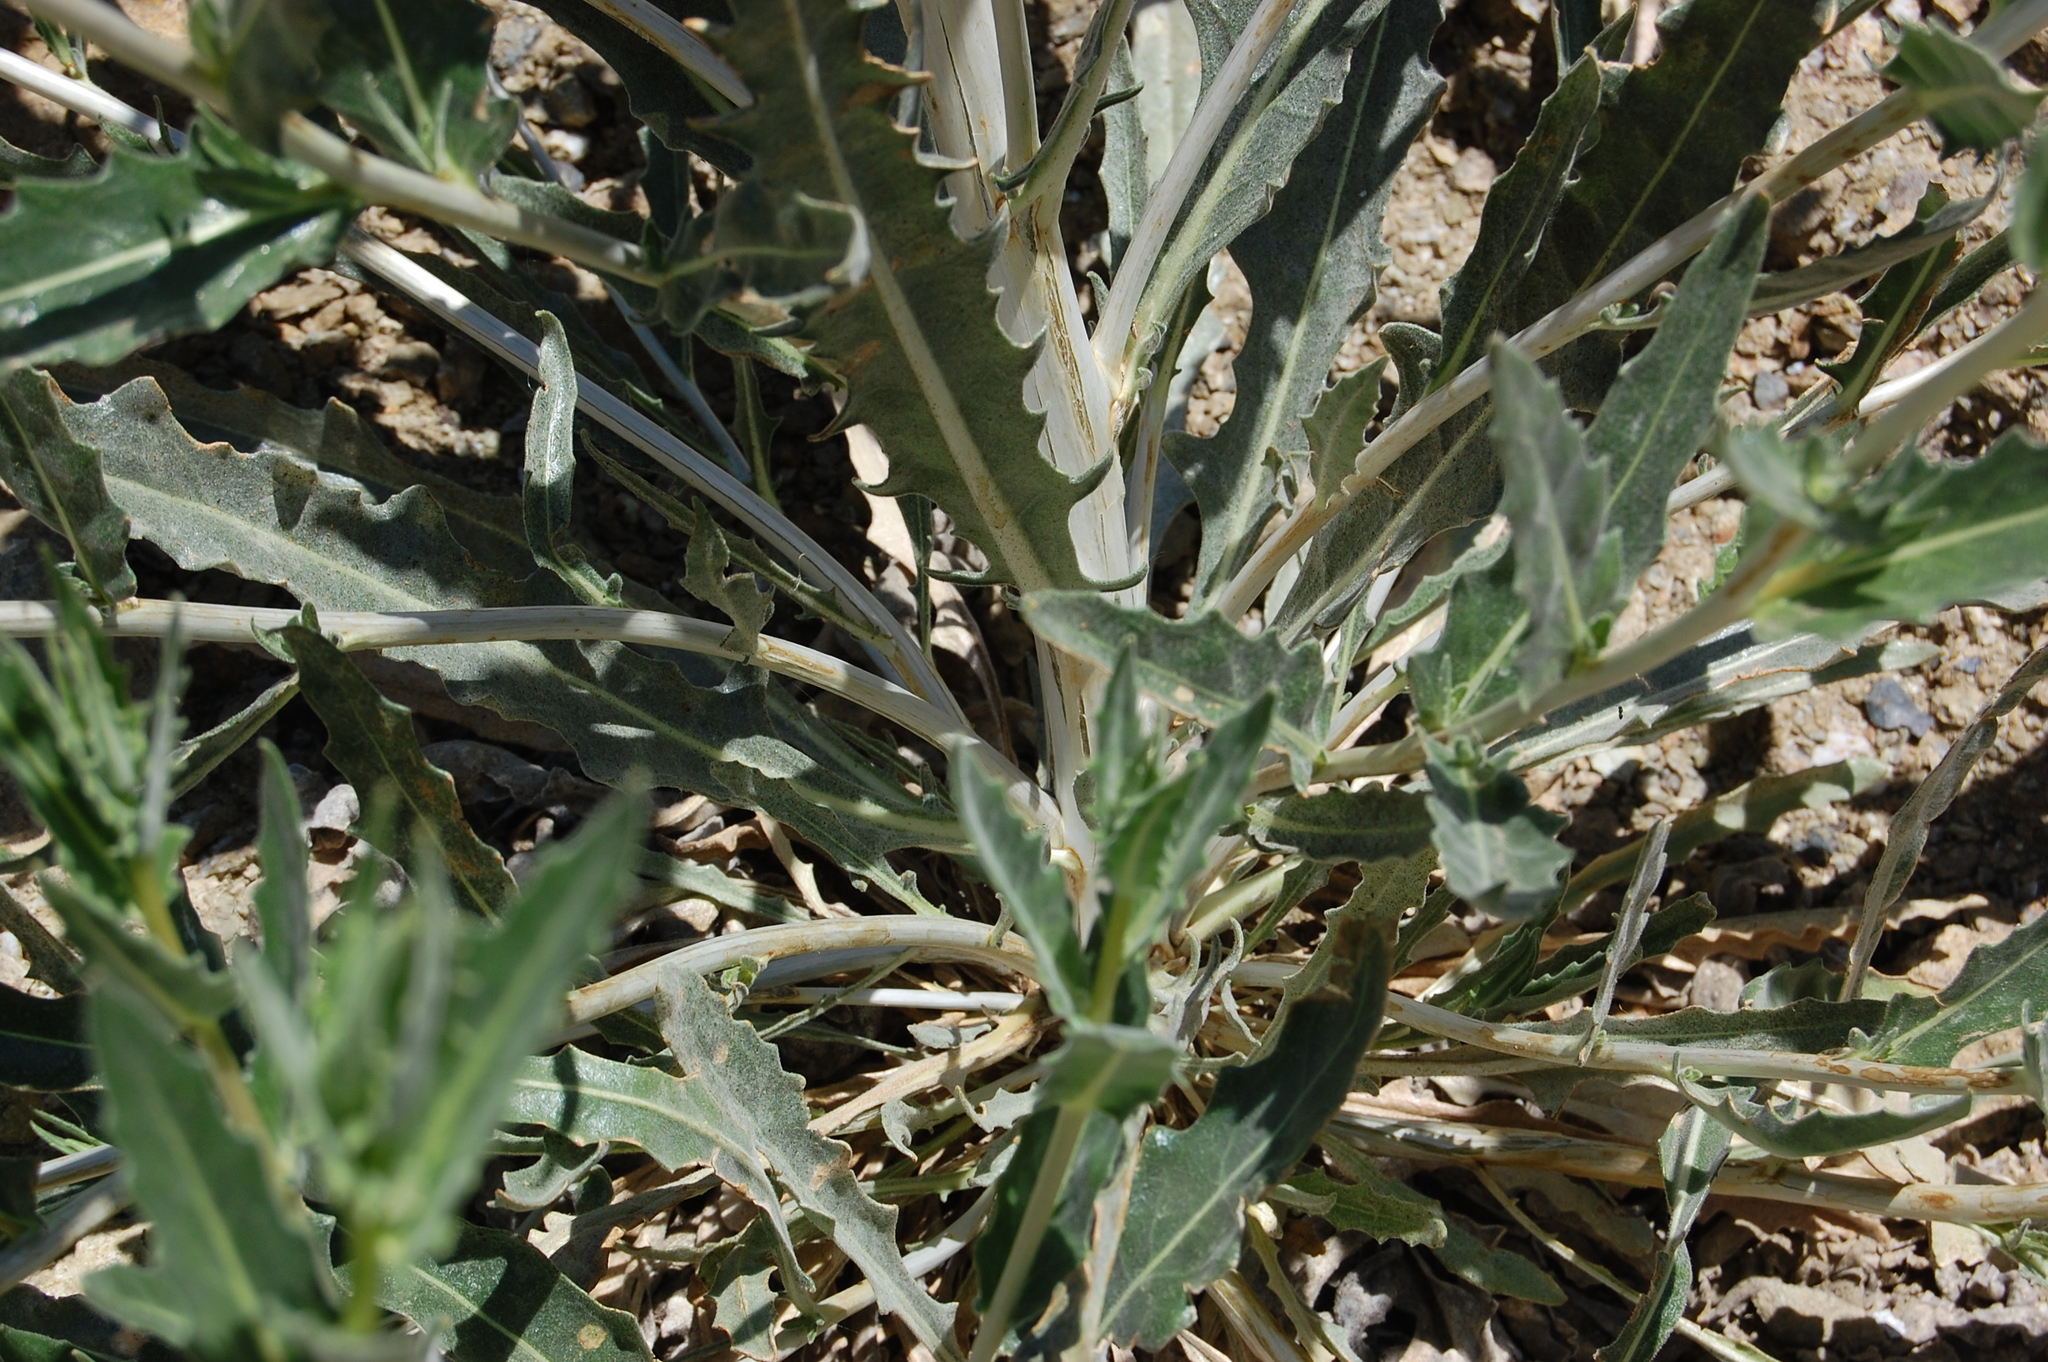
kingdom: Plantae
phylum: Tracheophyta
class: Magnoliopsida
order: Cornales
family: Loasaceae
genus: Mentzelia
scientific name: Mentzelia laevicaulis
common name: Smooth-stem blazingstar
